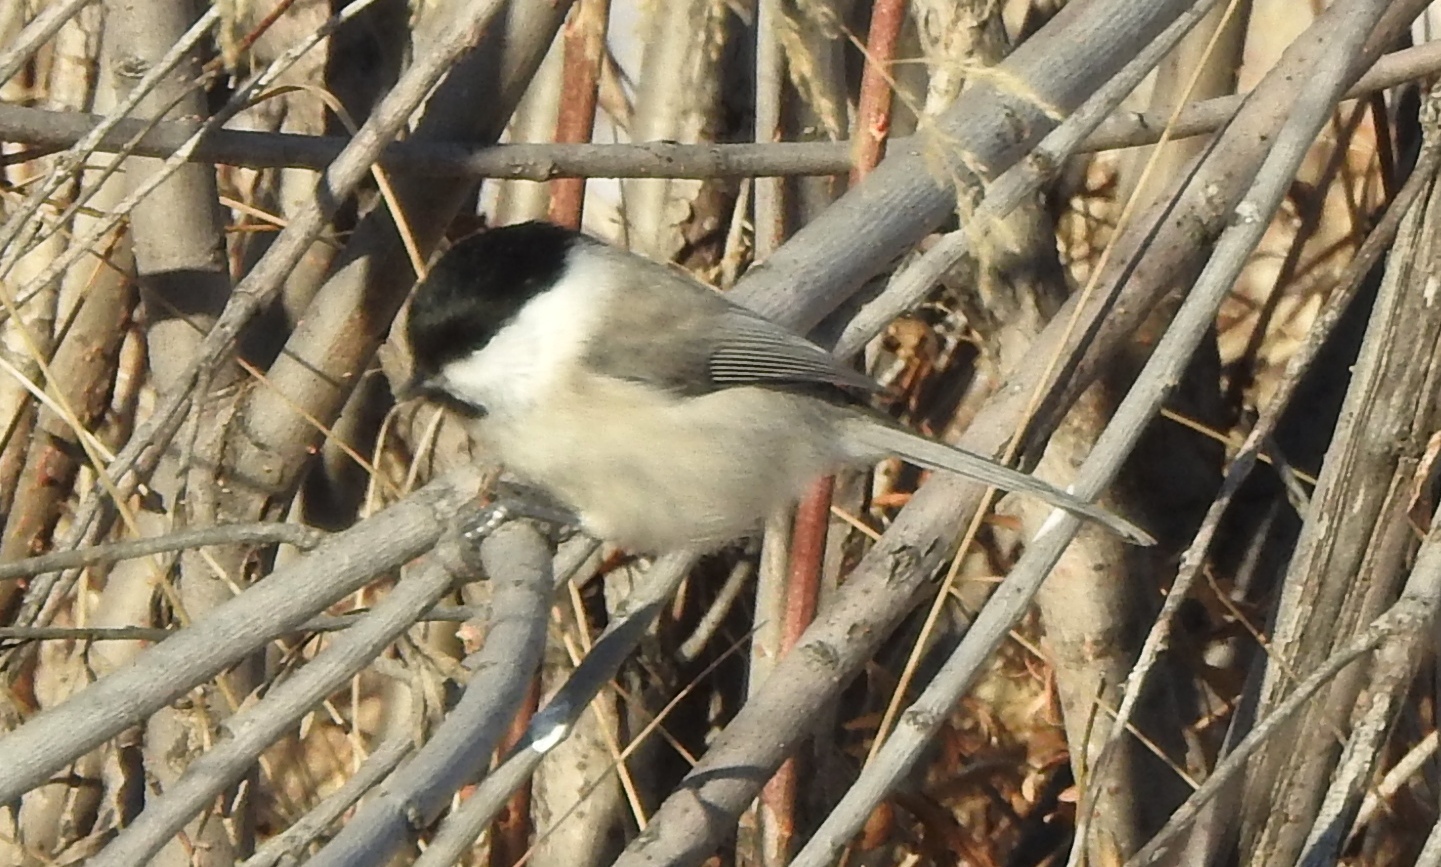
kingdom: Animalia
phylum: Chordata
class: Aves
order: Passeriformes
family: Paridae
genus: Poecile
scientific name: Poecile palustris
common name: Marsh tit
